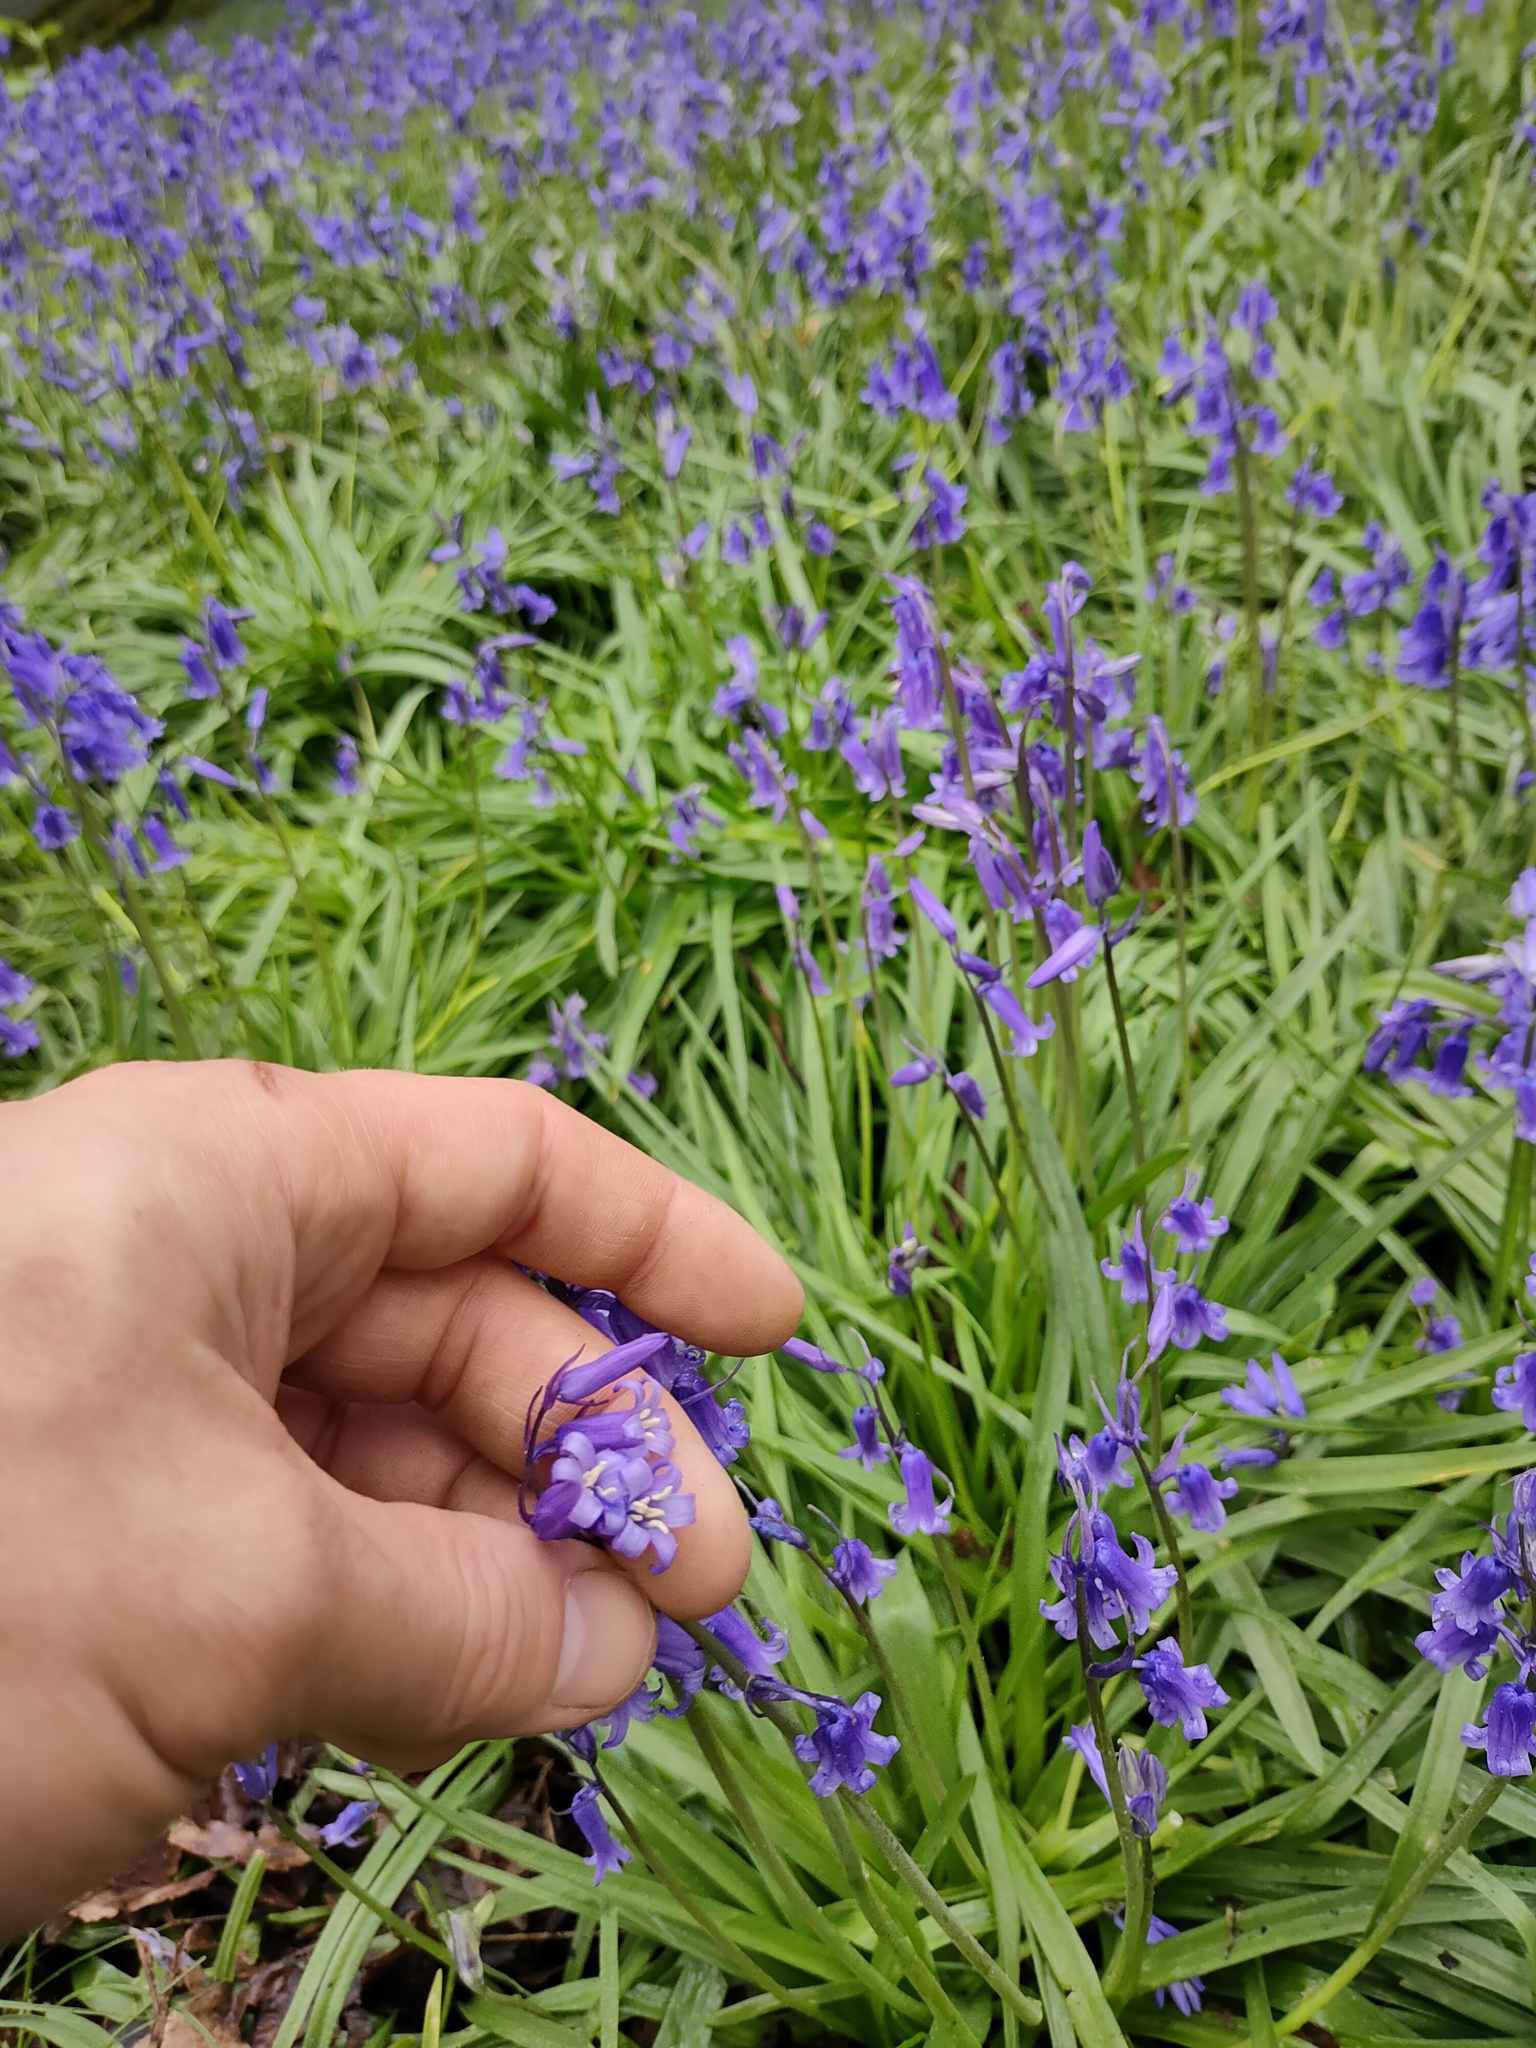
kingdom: Plantae
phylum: Tracheophyta
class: Liliopsida
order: Asparagales
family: Asparagaceae
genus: Hyacinthoides
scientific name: Hyacinthoides non-scripta
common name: Bluebell
